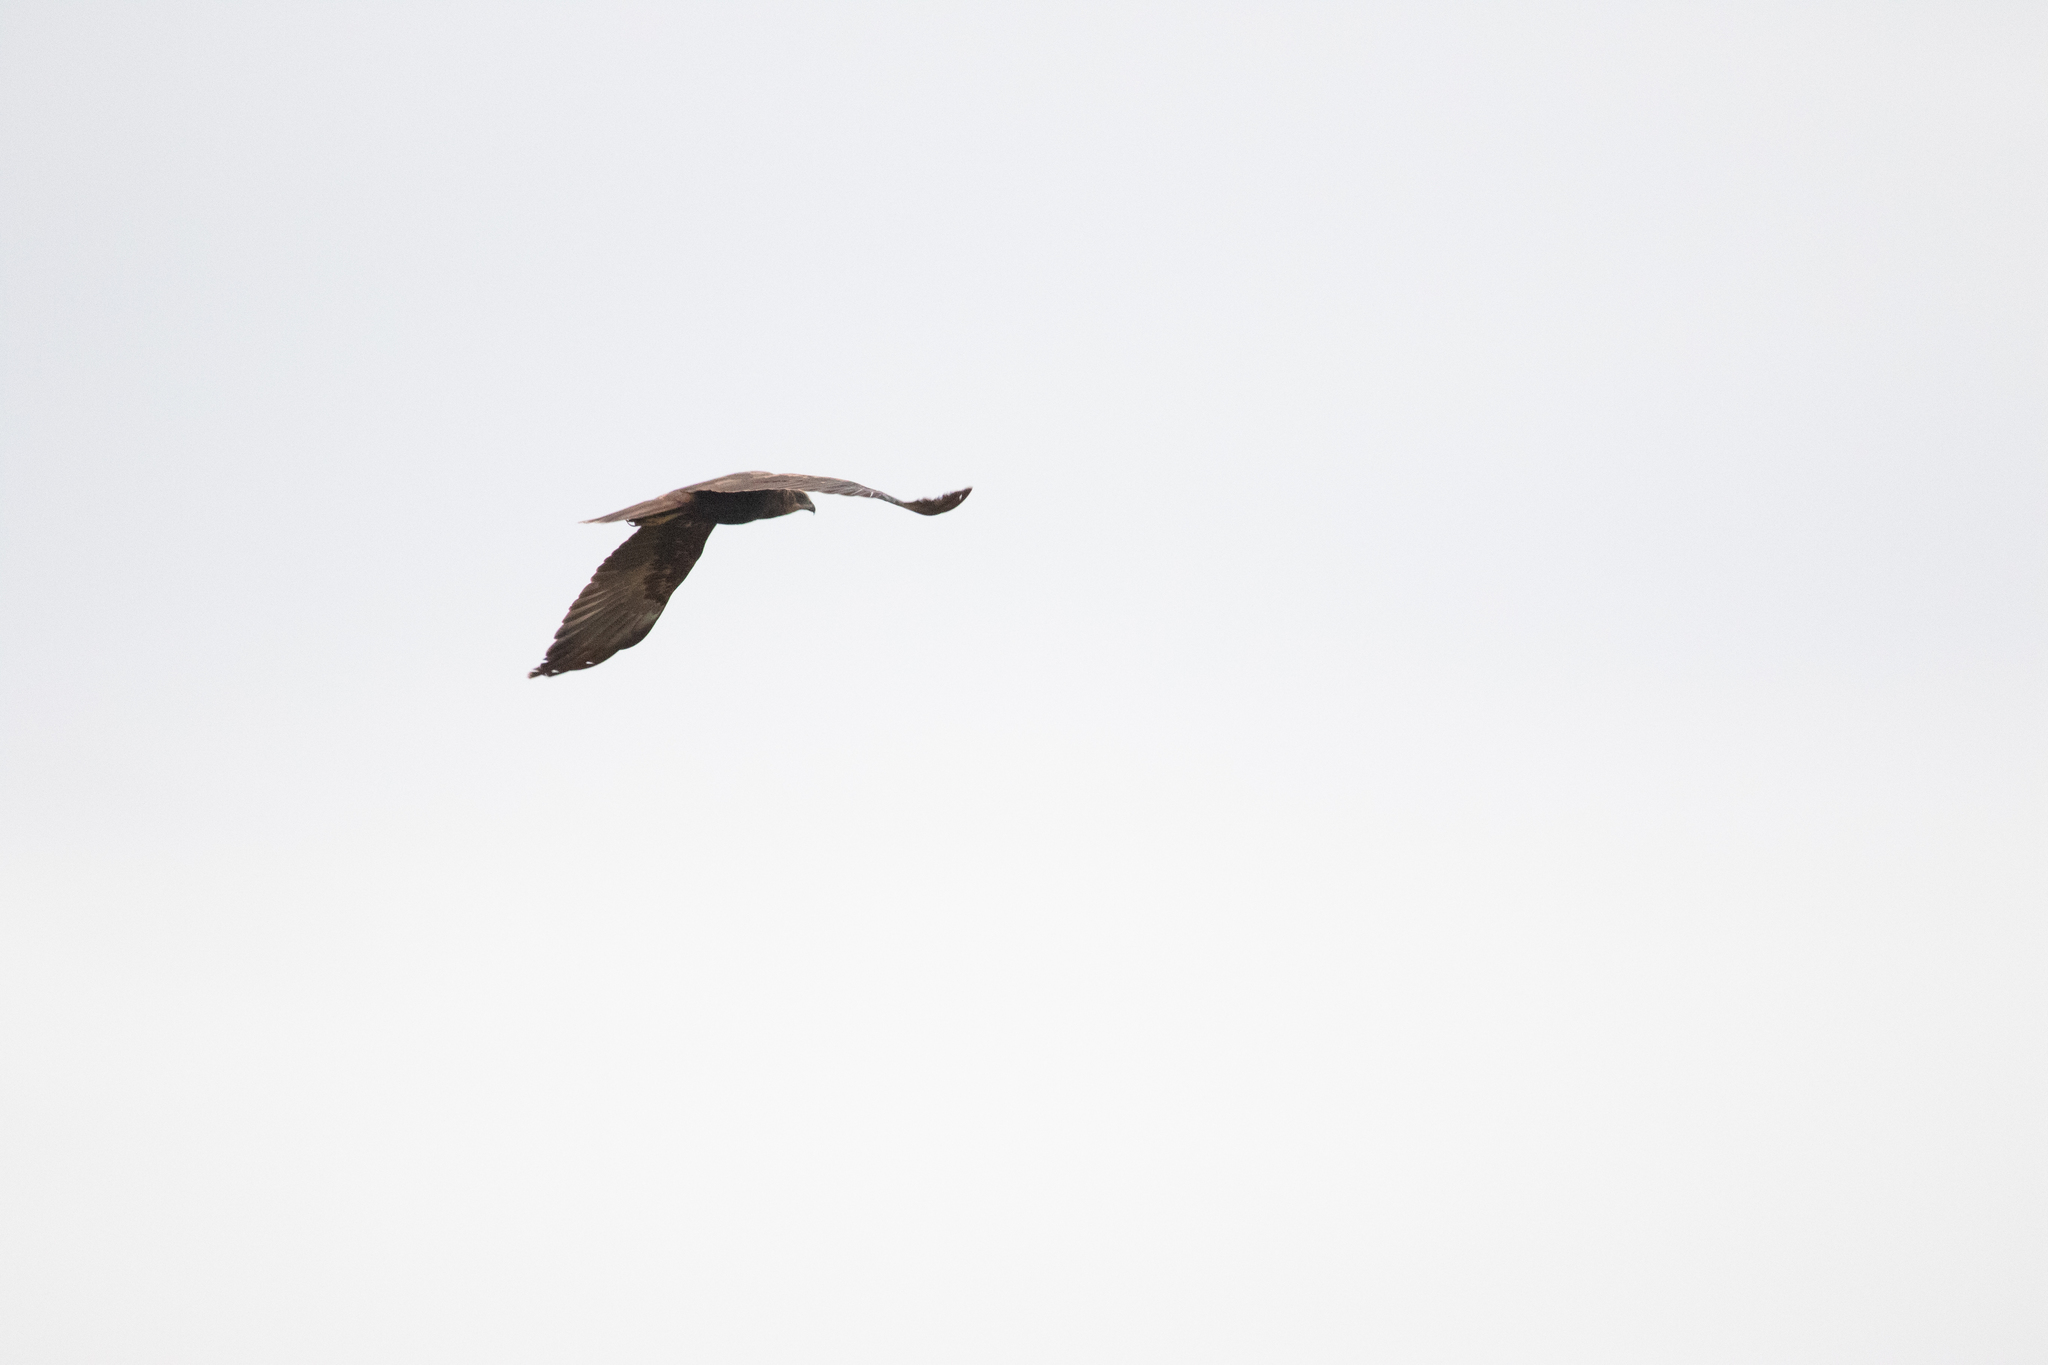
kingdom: Animalia
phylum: Chordata
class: Aves
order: Accipitriformes
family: Accipitridae
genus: Circus
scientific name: Circus aeruginosus
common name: Western marsh harrier
